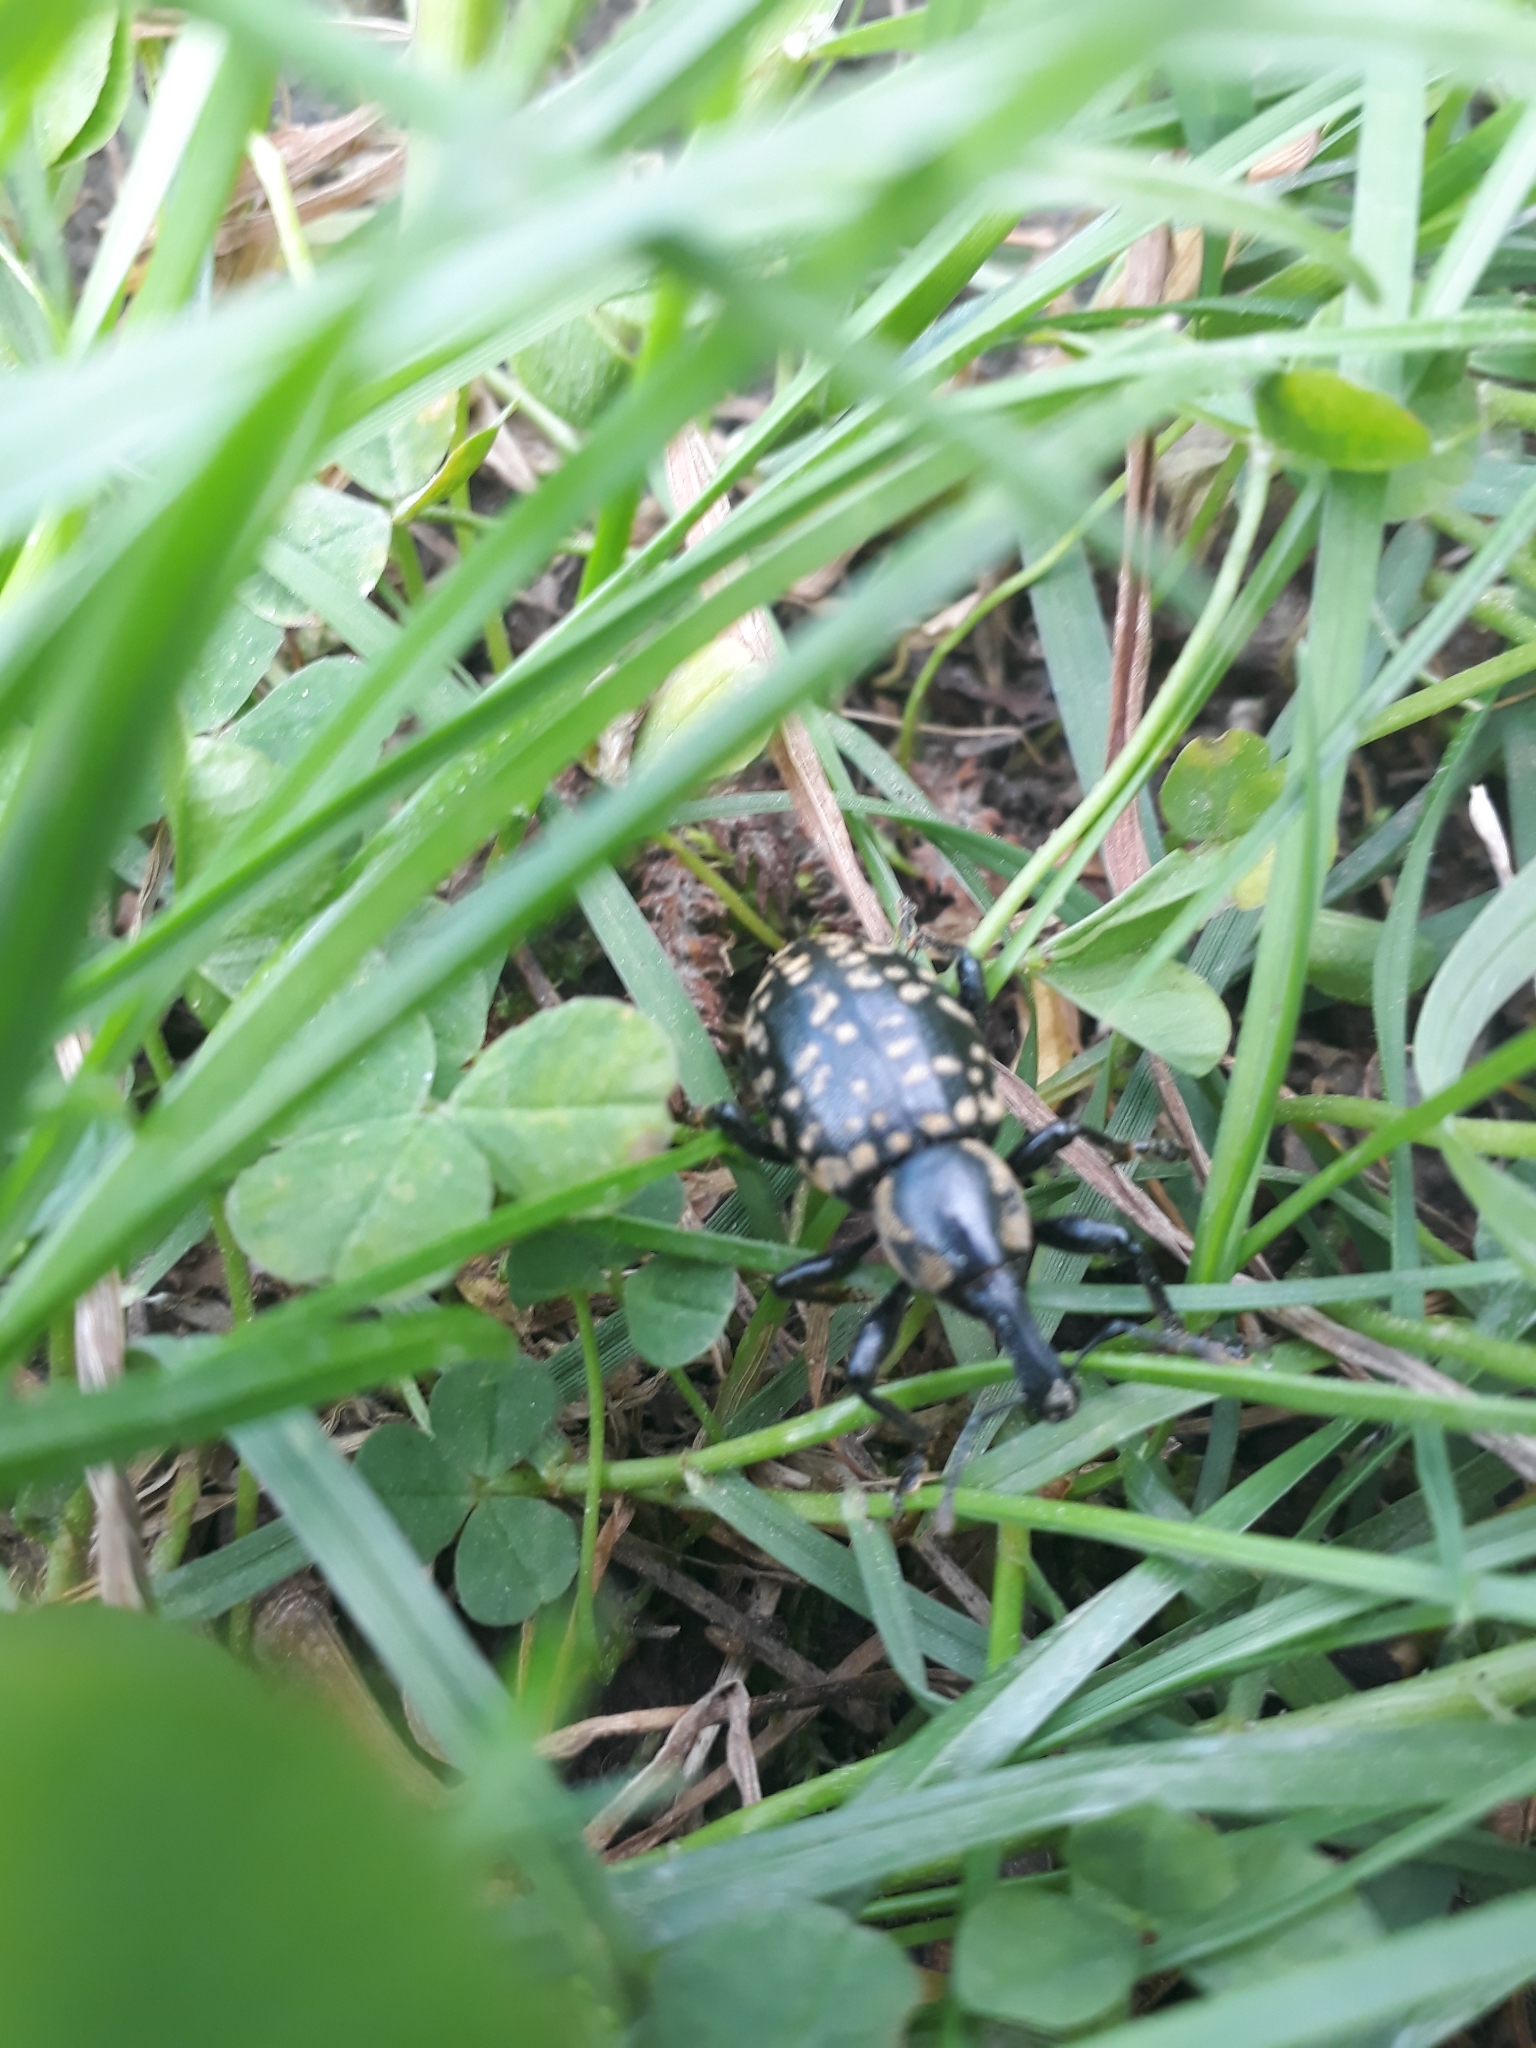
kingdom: Animalia
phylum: Arthropoda
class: Insecta
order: Coleoptera
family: Curculionidae
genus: Liparus
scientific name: Liparus glabrirostris
